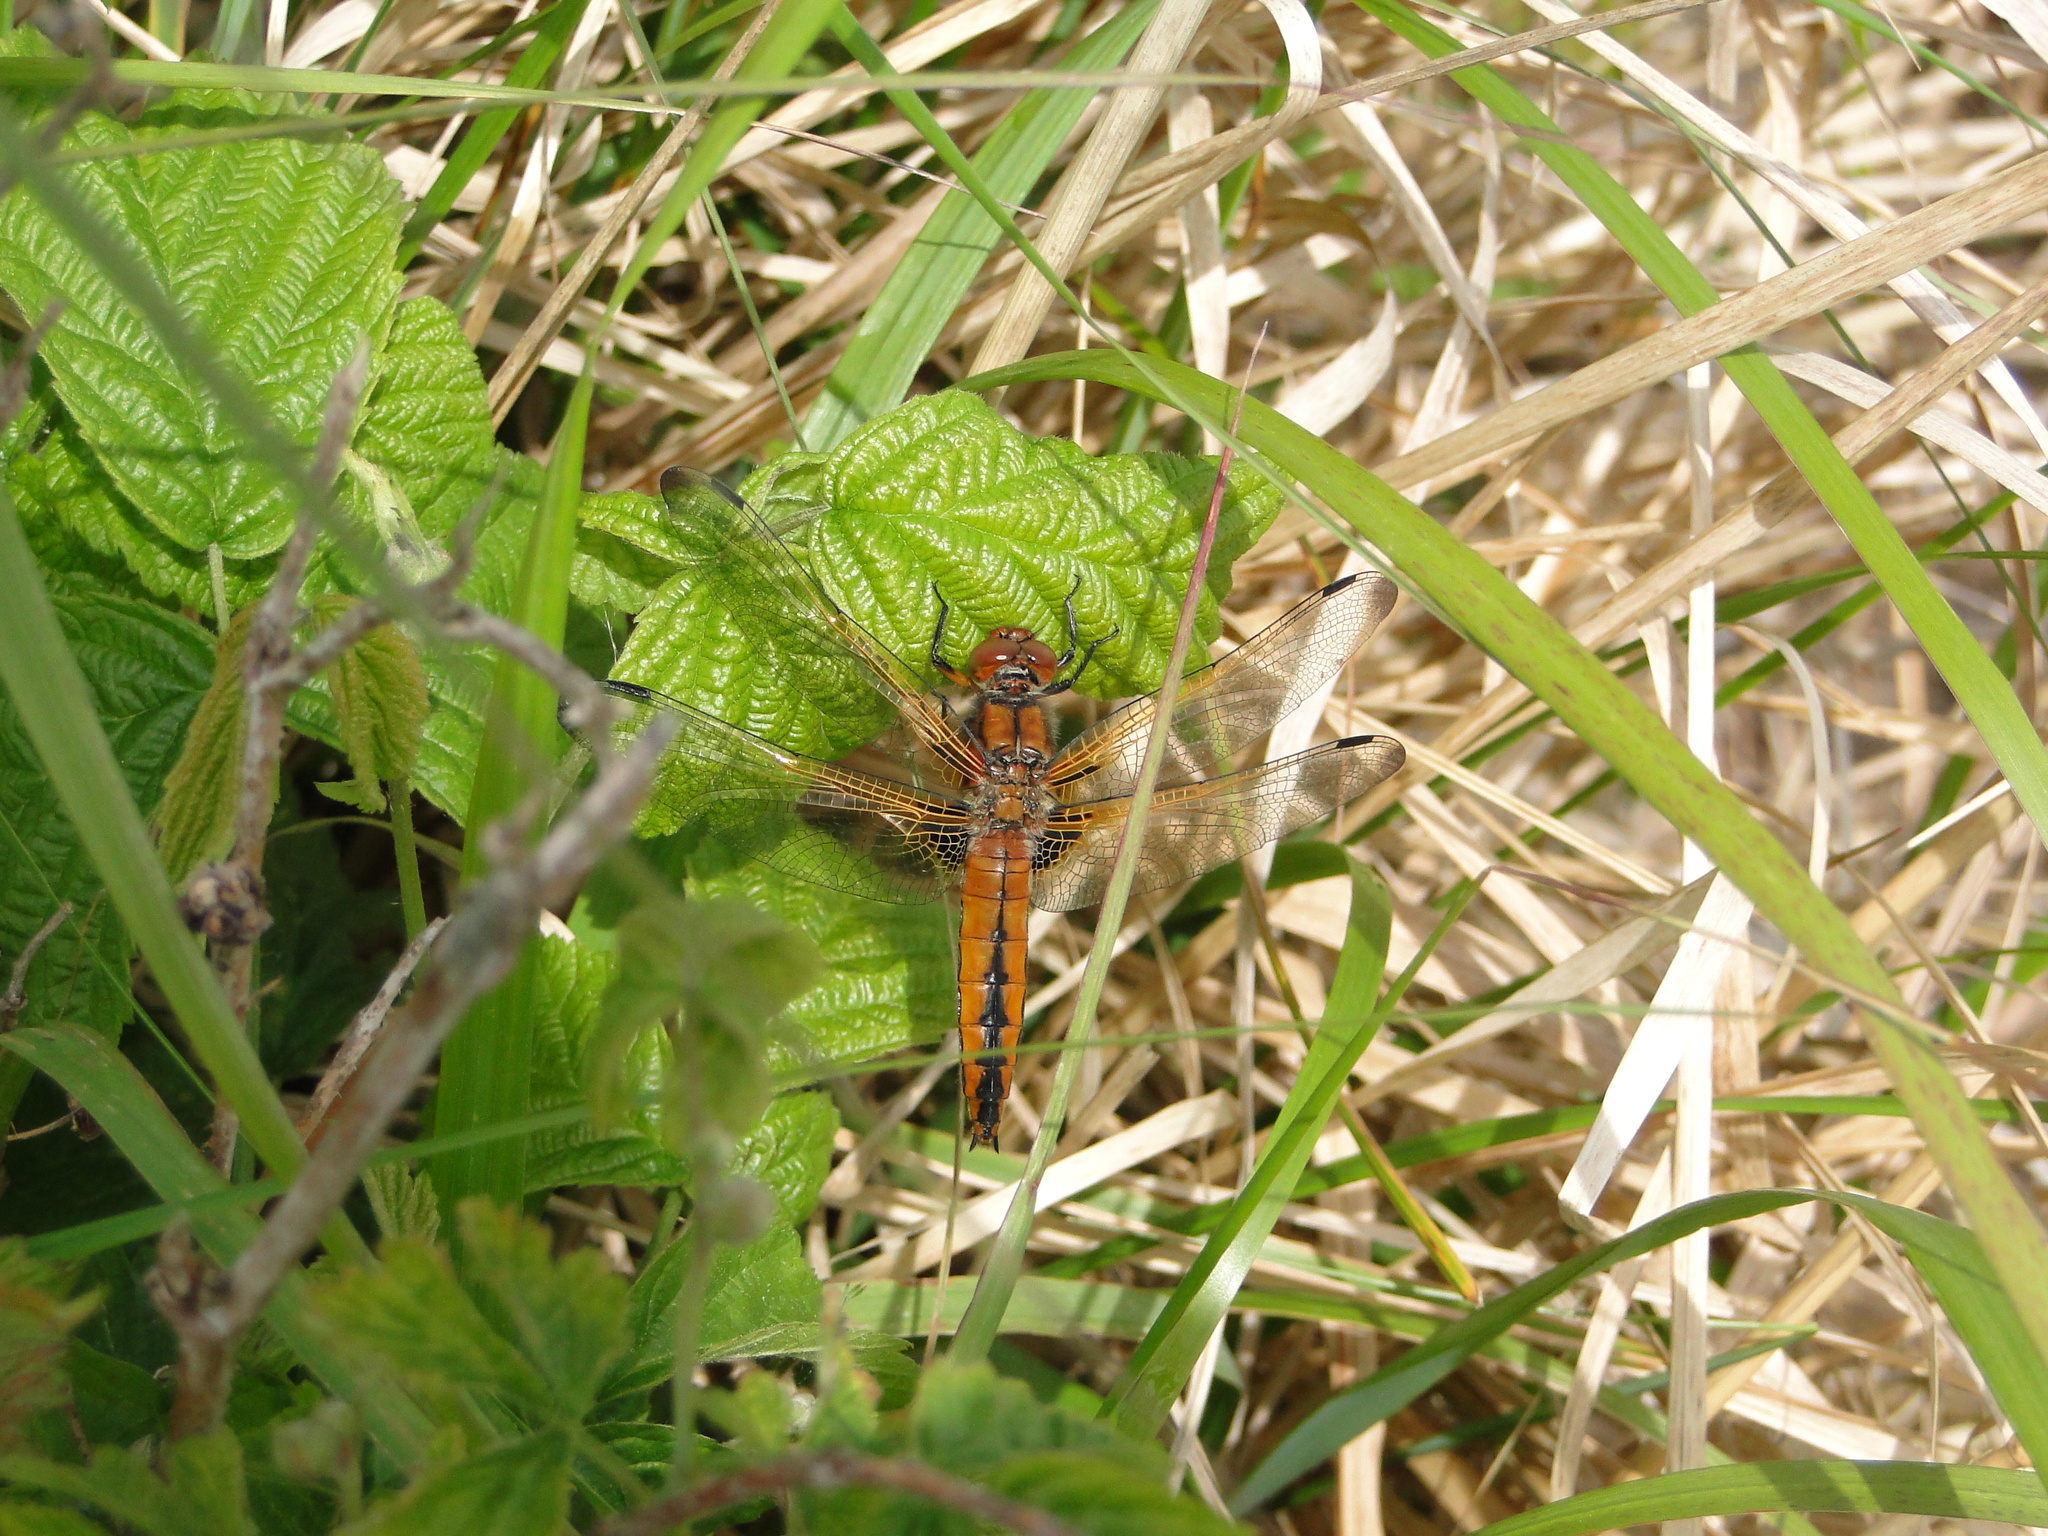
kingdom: Animalia
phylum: Arthropoda
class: Insecta
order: Odonata
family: Libellulidae
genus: Libellula
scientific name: Libellula fulva
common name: Blue chaser
